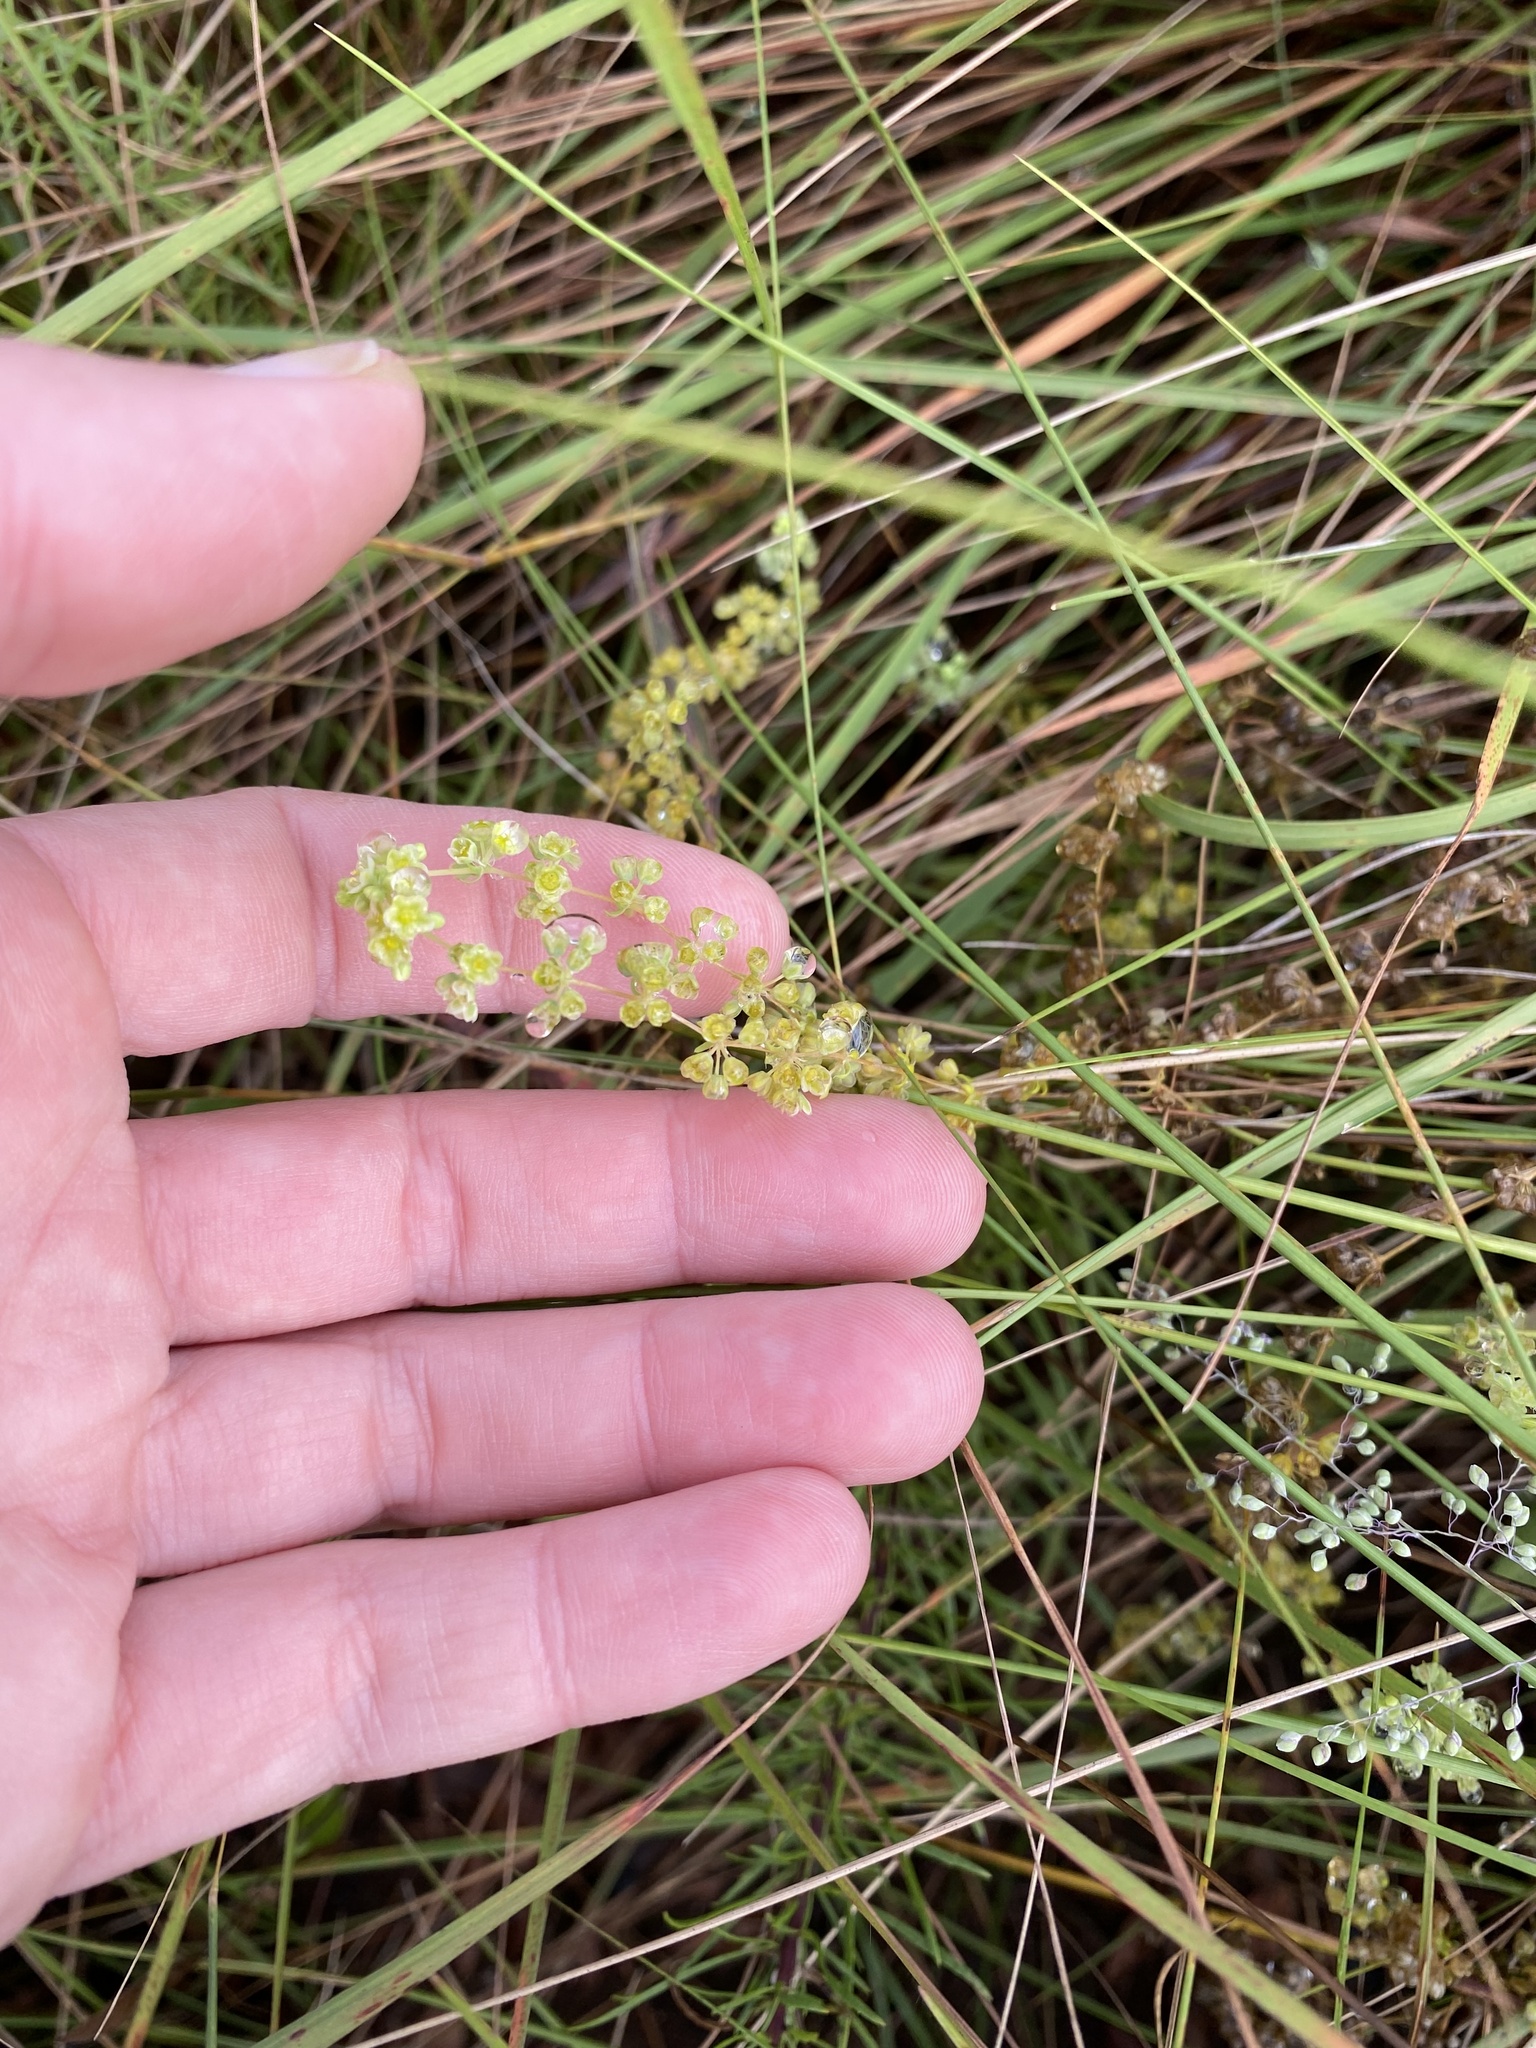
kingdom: Plantae
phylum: Tracheophyta
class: Magnoliopsida
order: Caryophyllales
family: Molluginaceae
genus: Psammotropha
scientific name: Psammotropha myriantha
